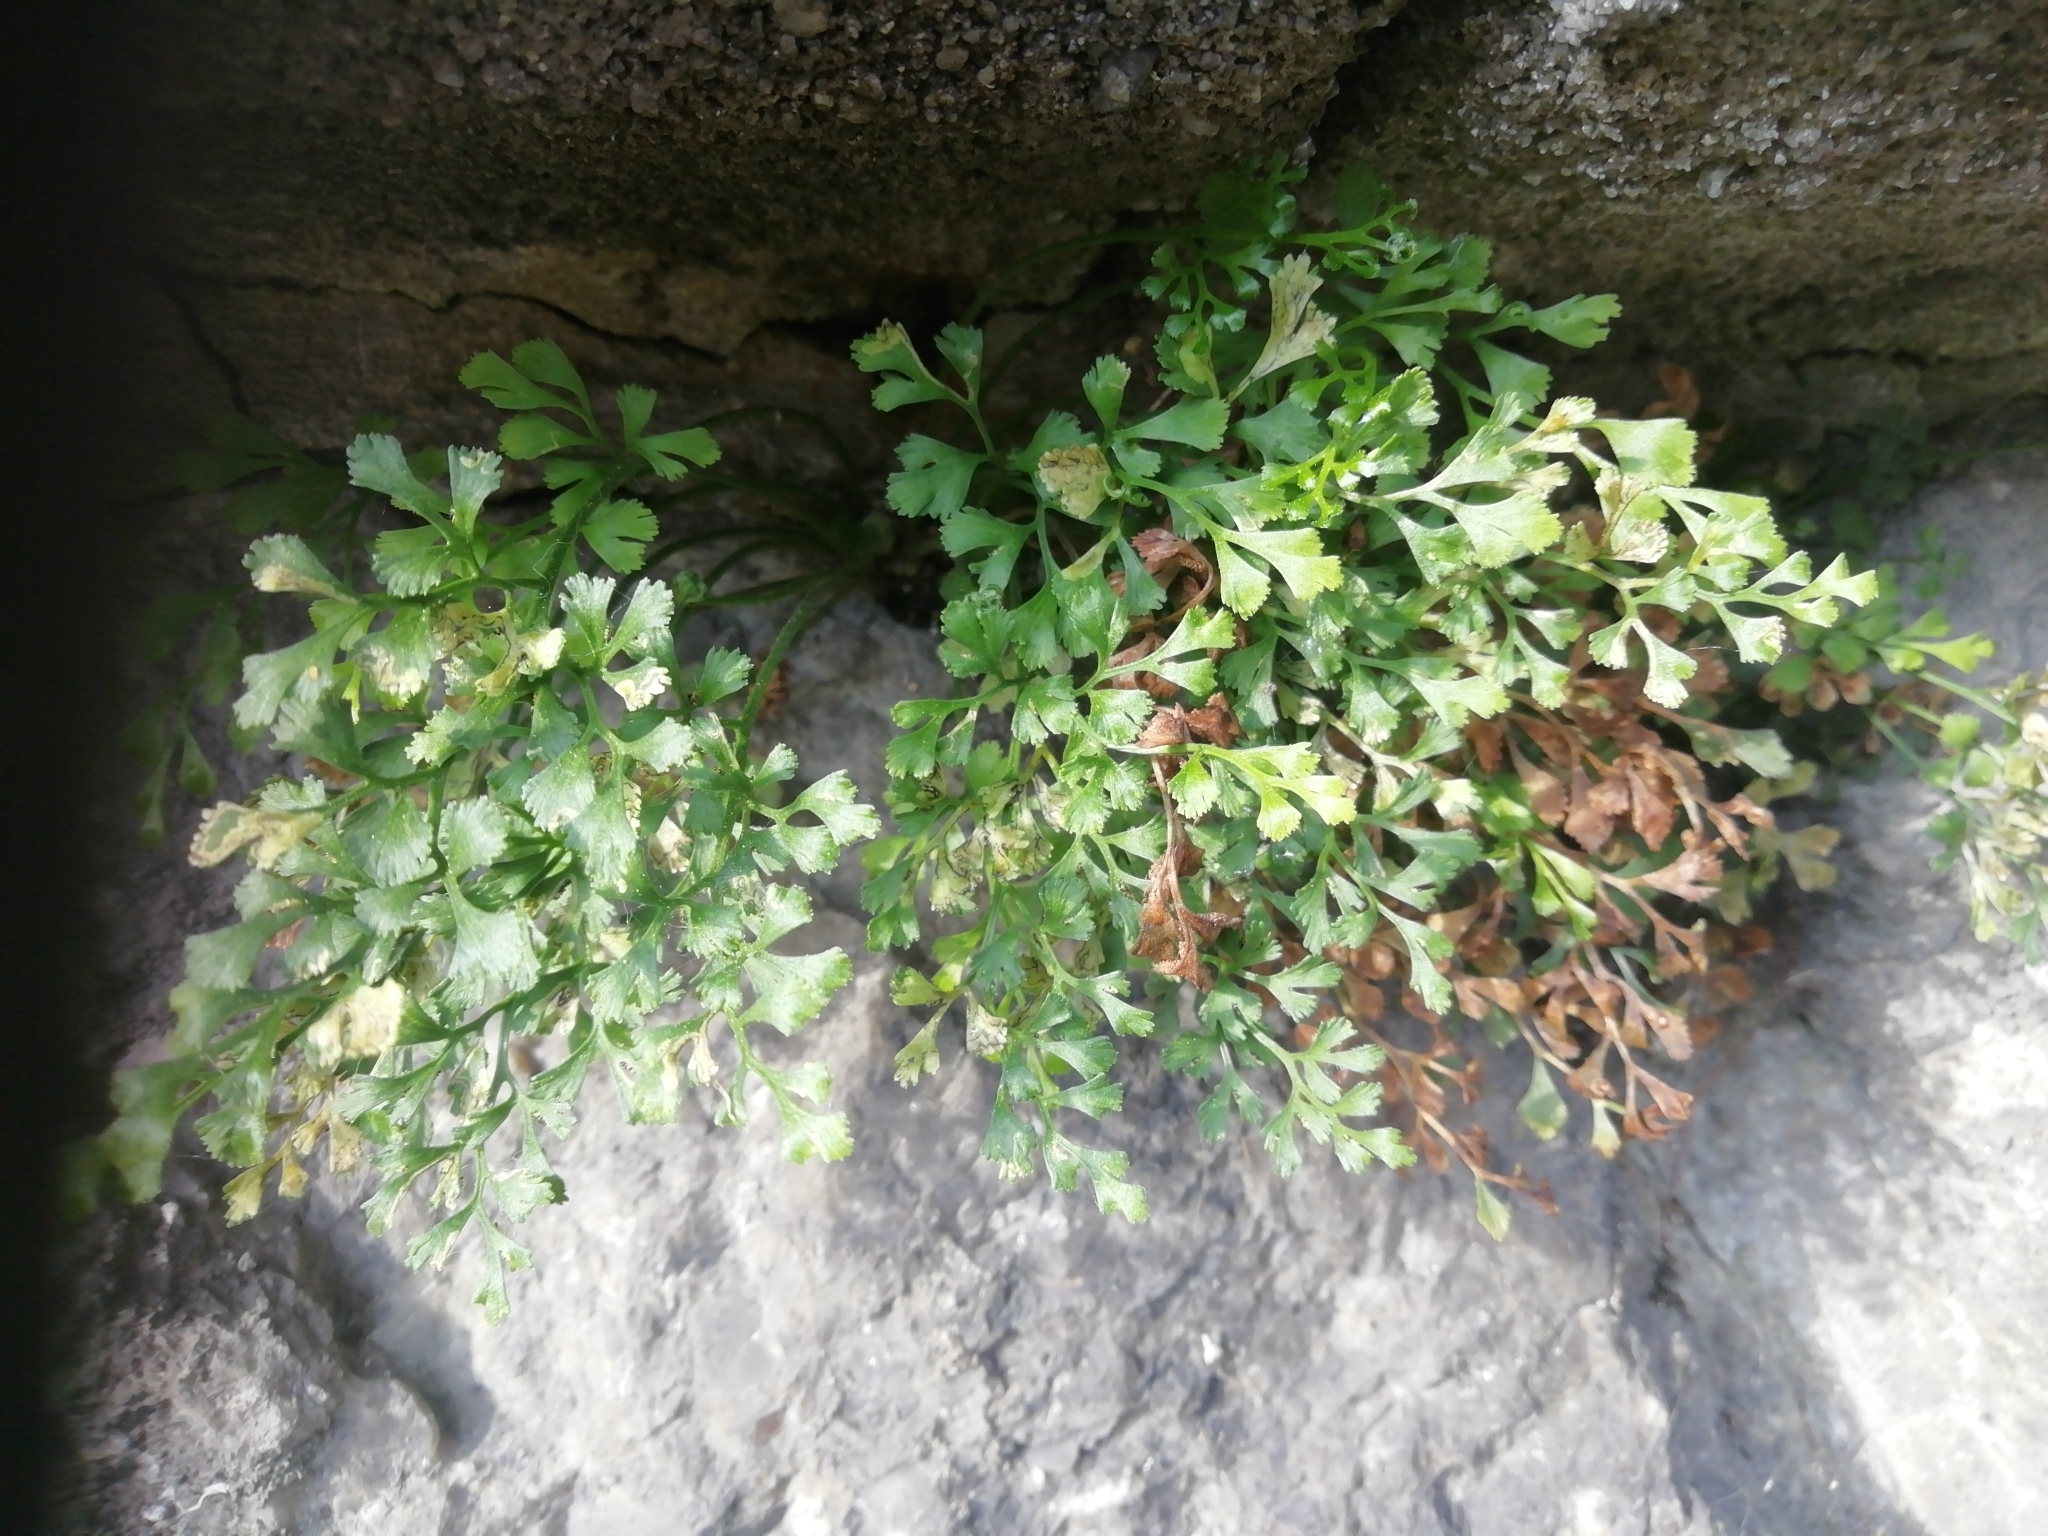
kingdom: Plantae
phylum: Tracheophyta
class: Polypodiopsida
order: Polypodiales
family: Aspleniaceae
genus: Asplenium
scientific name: Asplenium ruta-muraria
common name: Wall-rue
